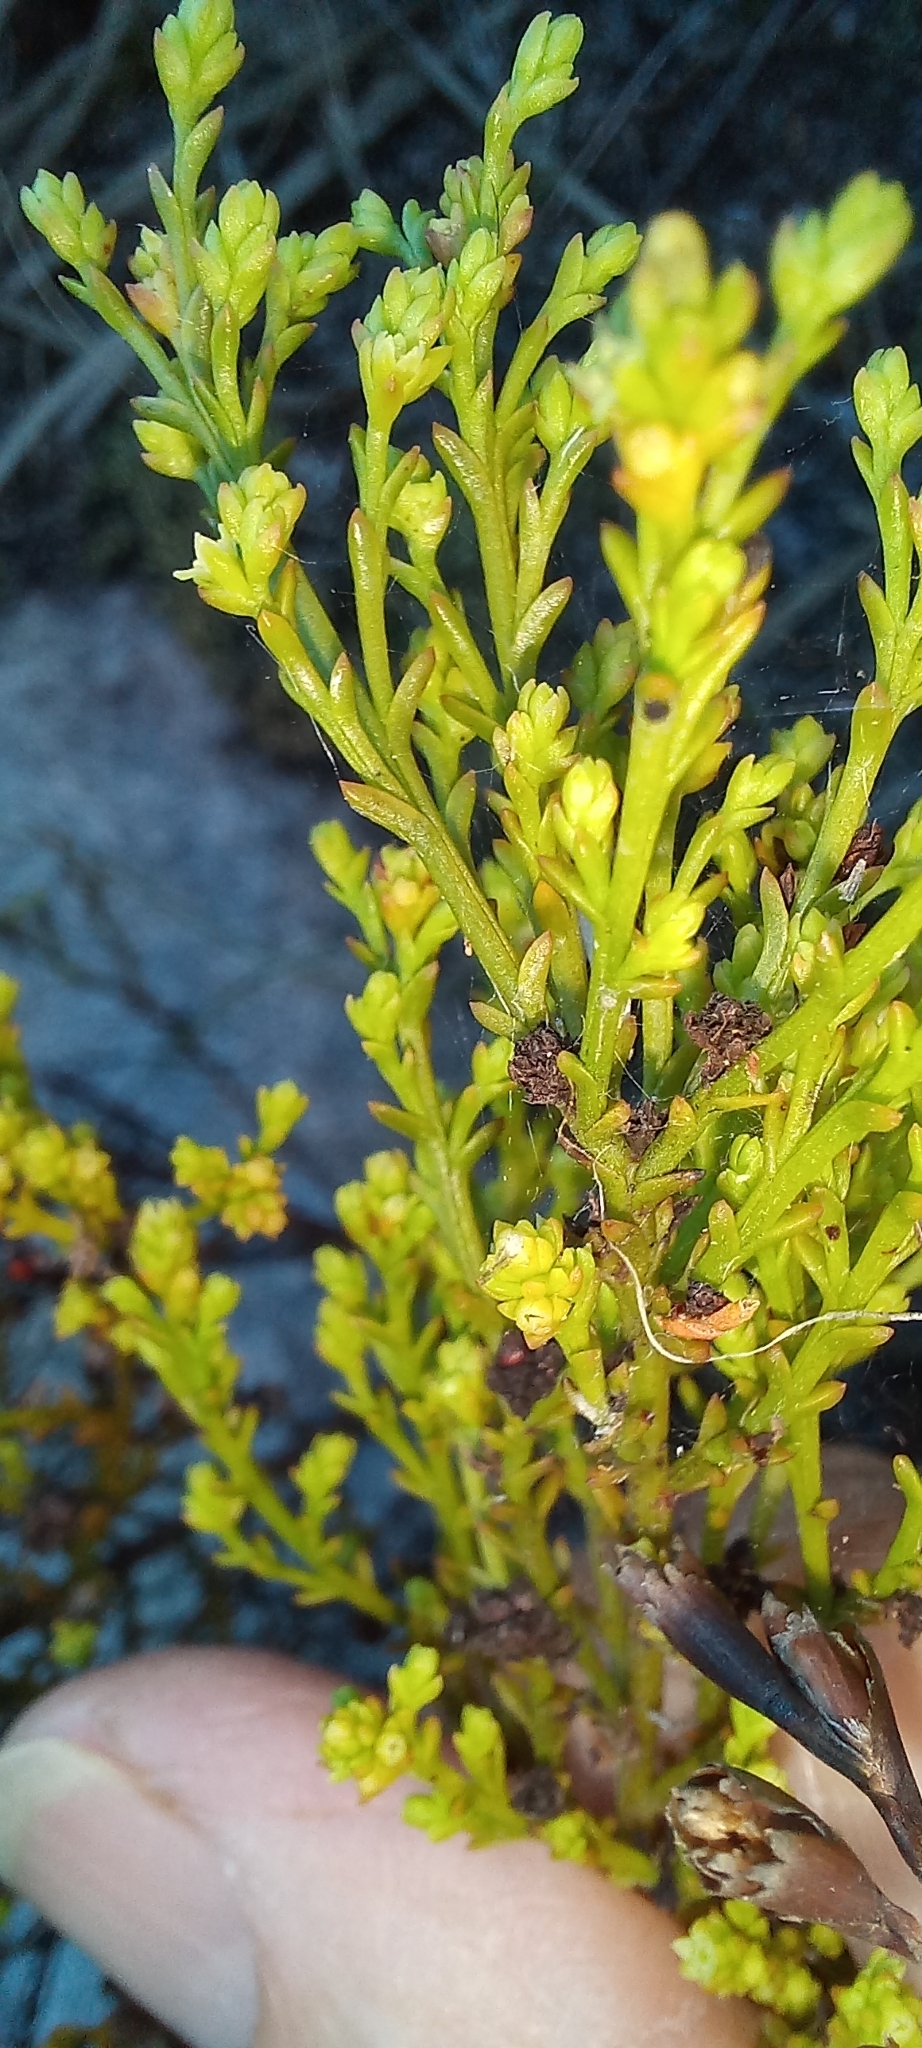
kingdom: Plantae
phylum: Tracheophyta
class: Magnoliopsida
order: Santalales
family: Thesiaceae
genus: Thesium
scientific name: Thesium ericiifolium
